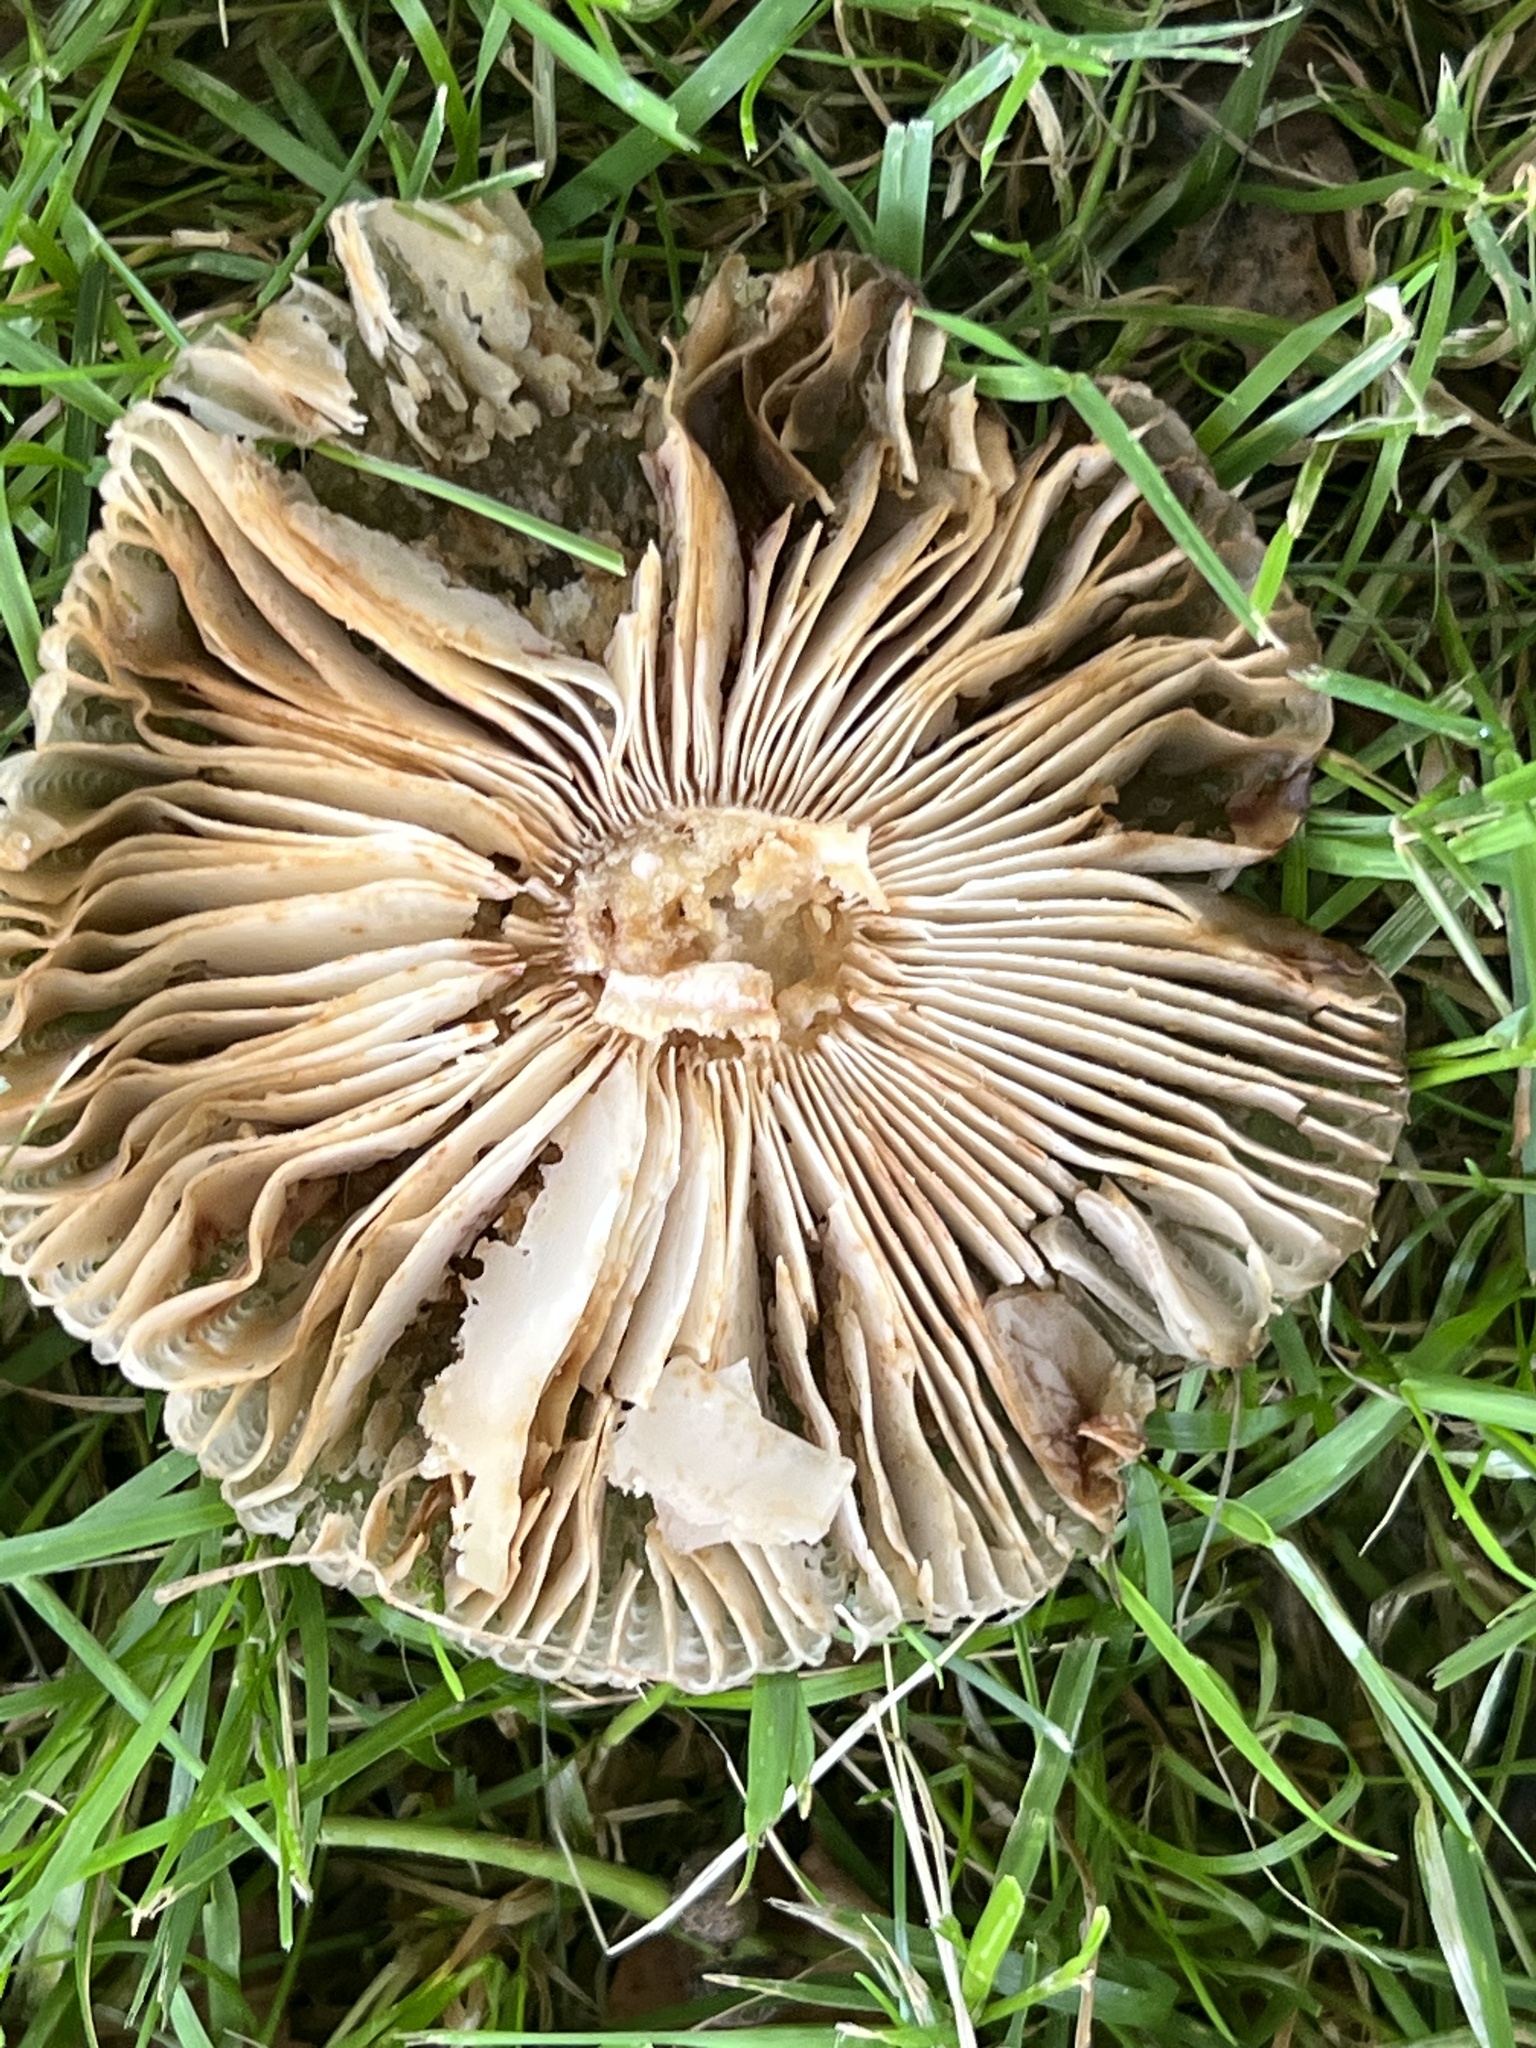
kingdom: Fungi
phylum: Basidiomycota
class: Agaricomycetes
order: Russulales
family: Russulaceae
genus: Russula
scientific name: Russula amoenolens
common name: Camembert brittlegill
